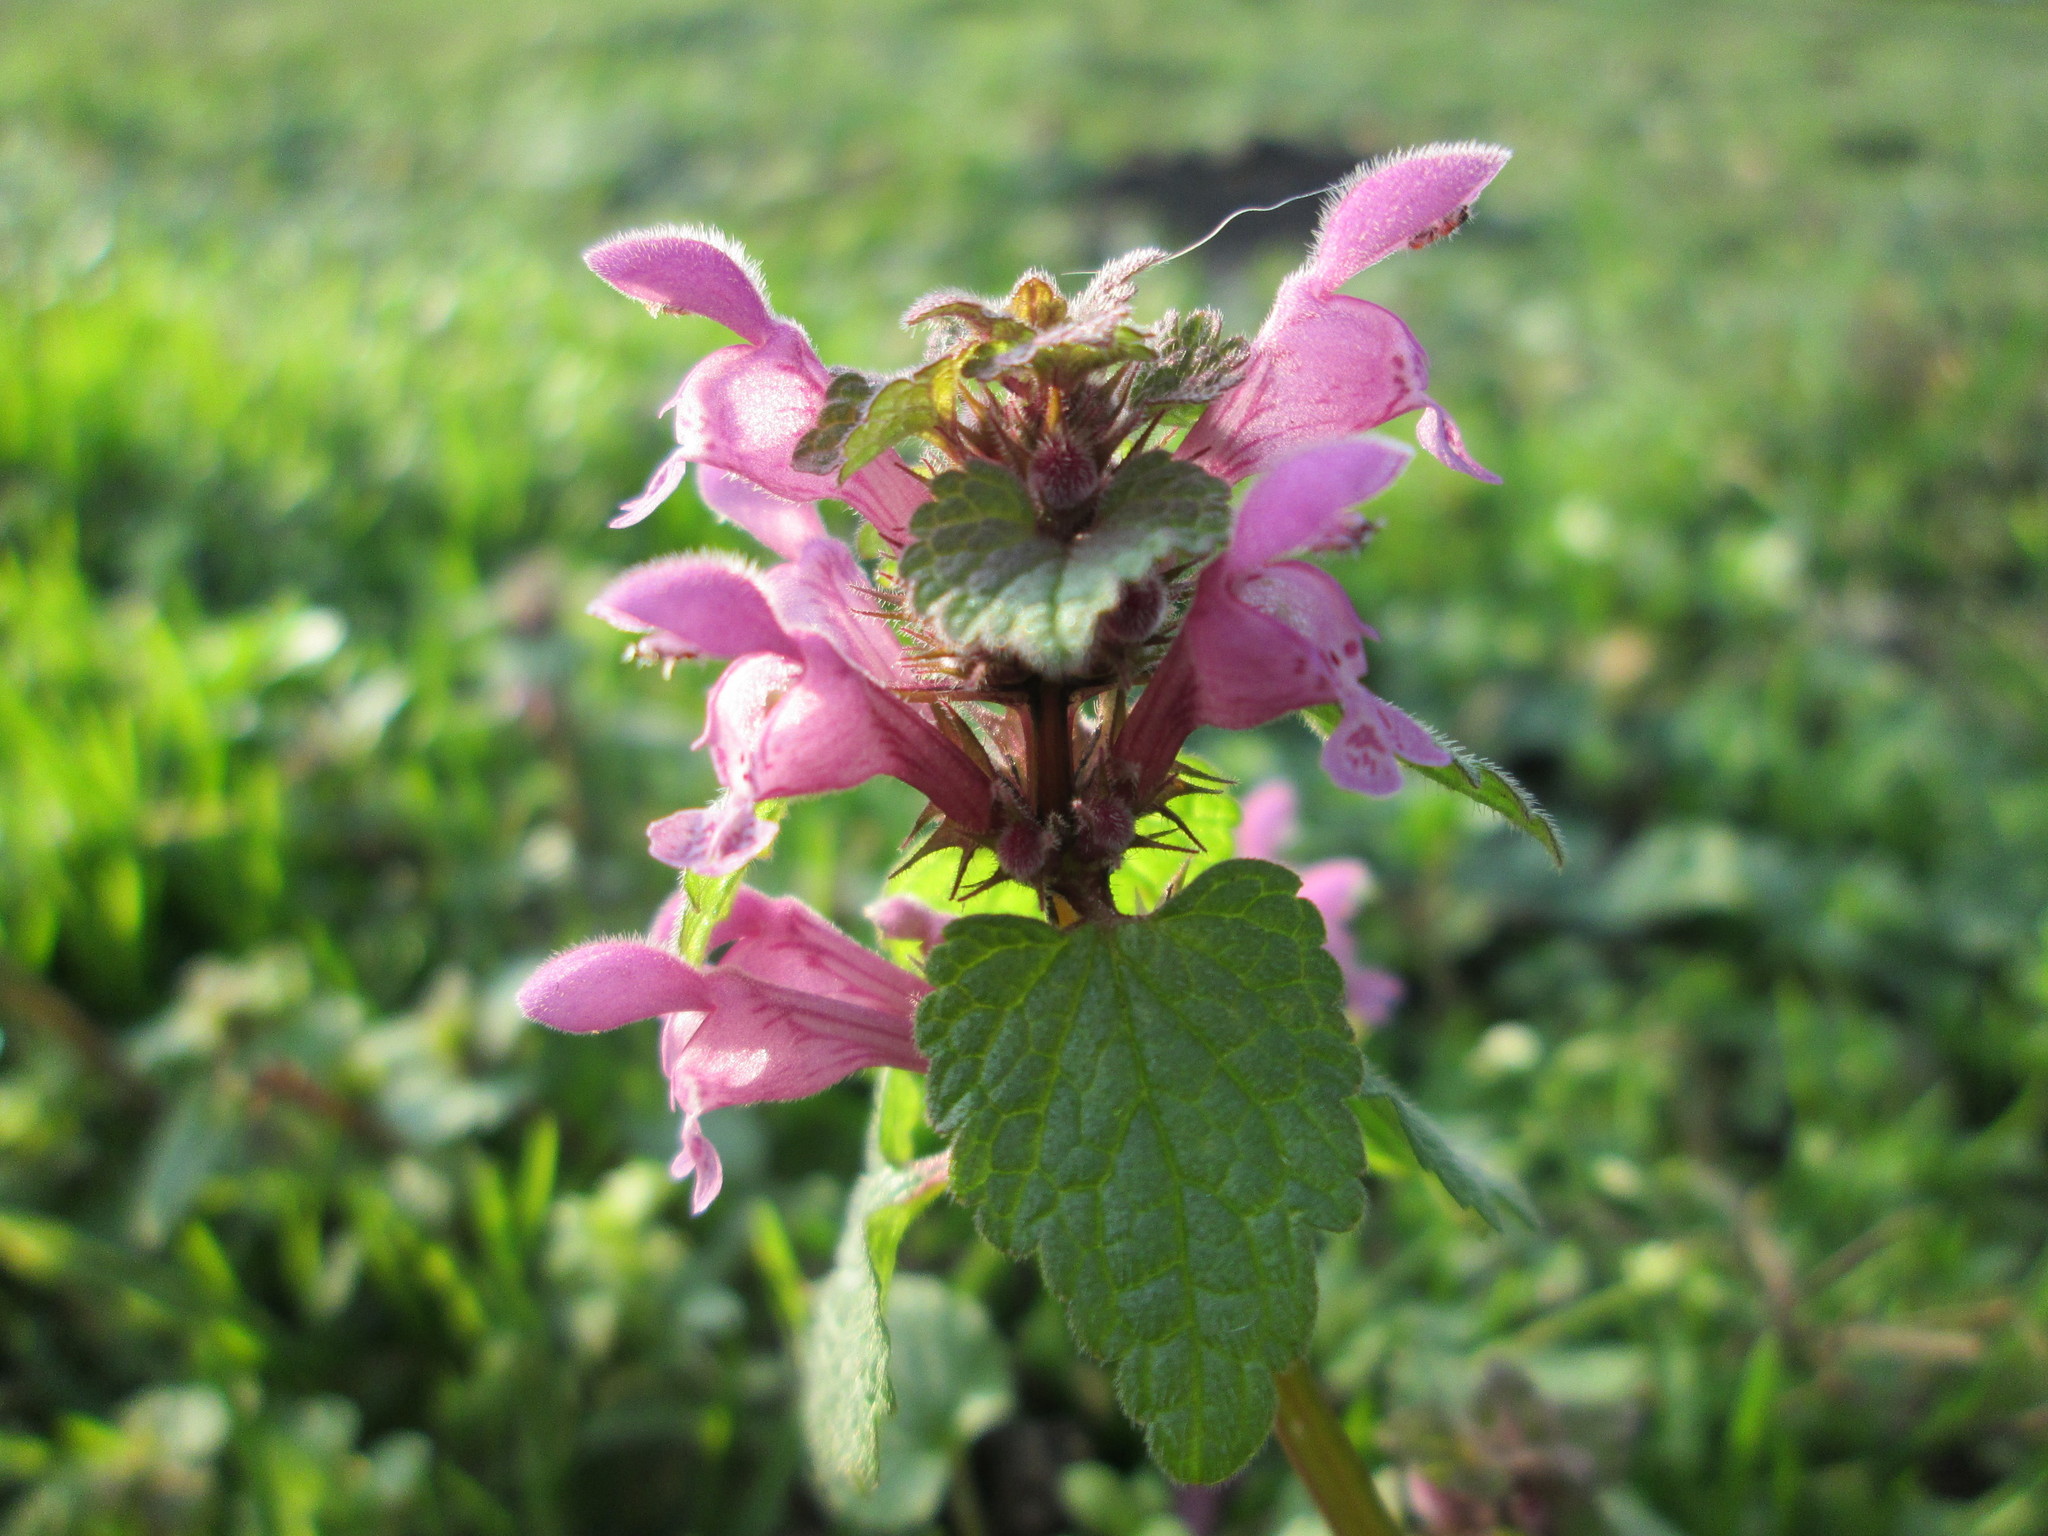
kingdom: Plantae
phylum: Tracheophyta
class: Magnoliopsida
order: Lamiales
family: Lamiaceae
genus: Lamium
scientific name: Lamium purpureum
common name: Red dead-nettle
